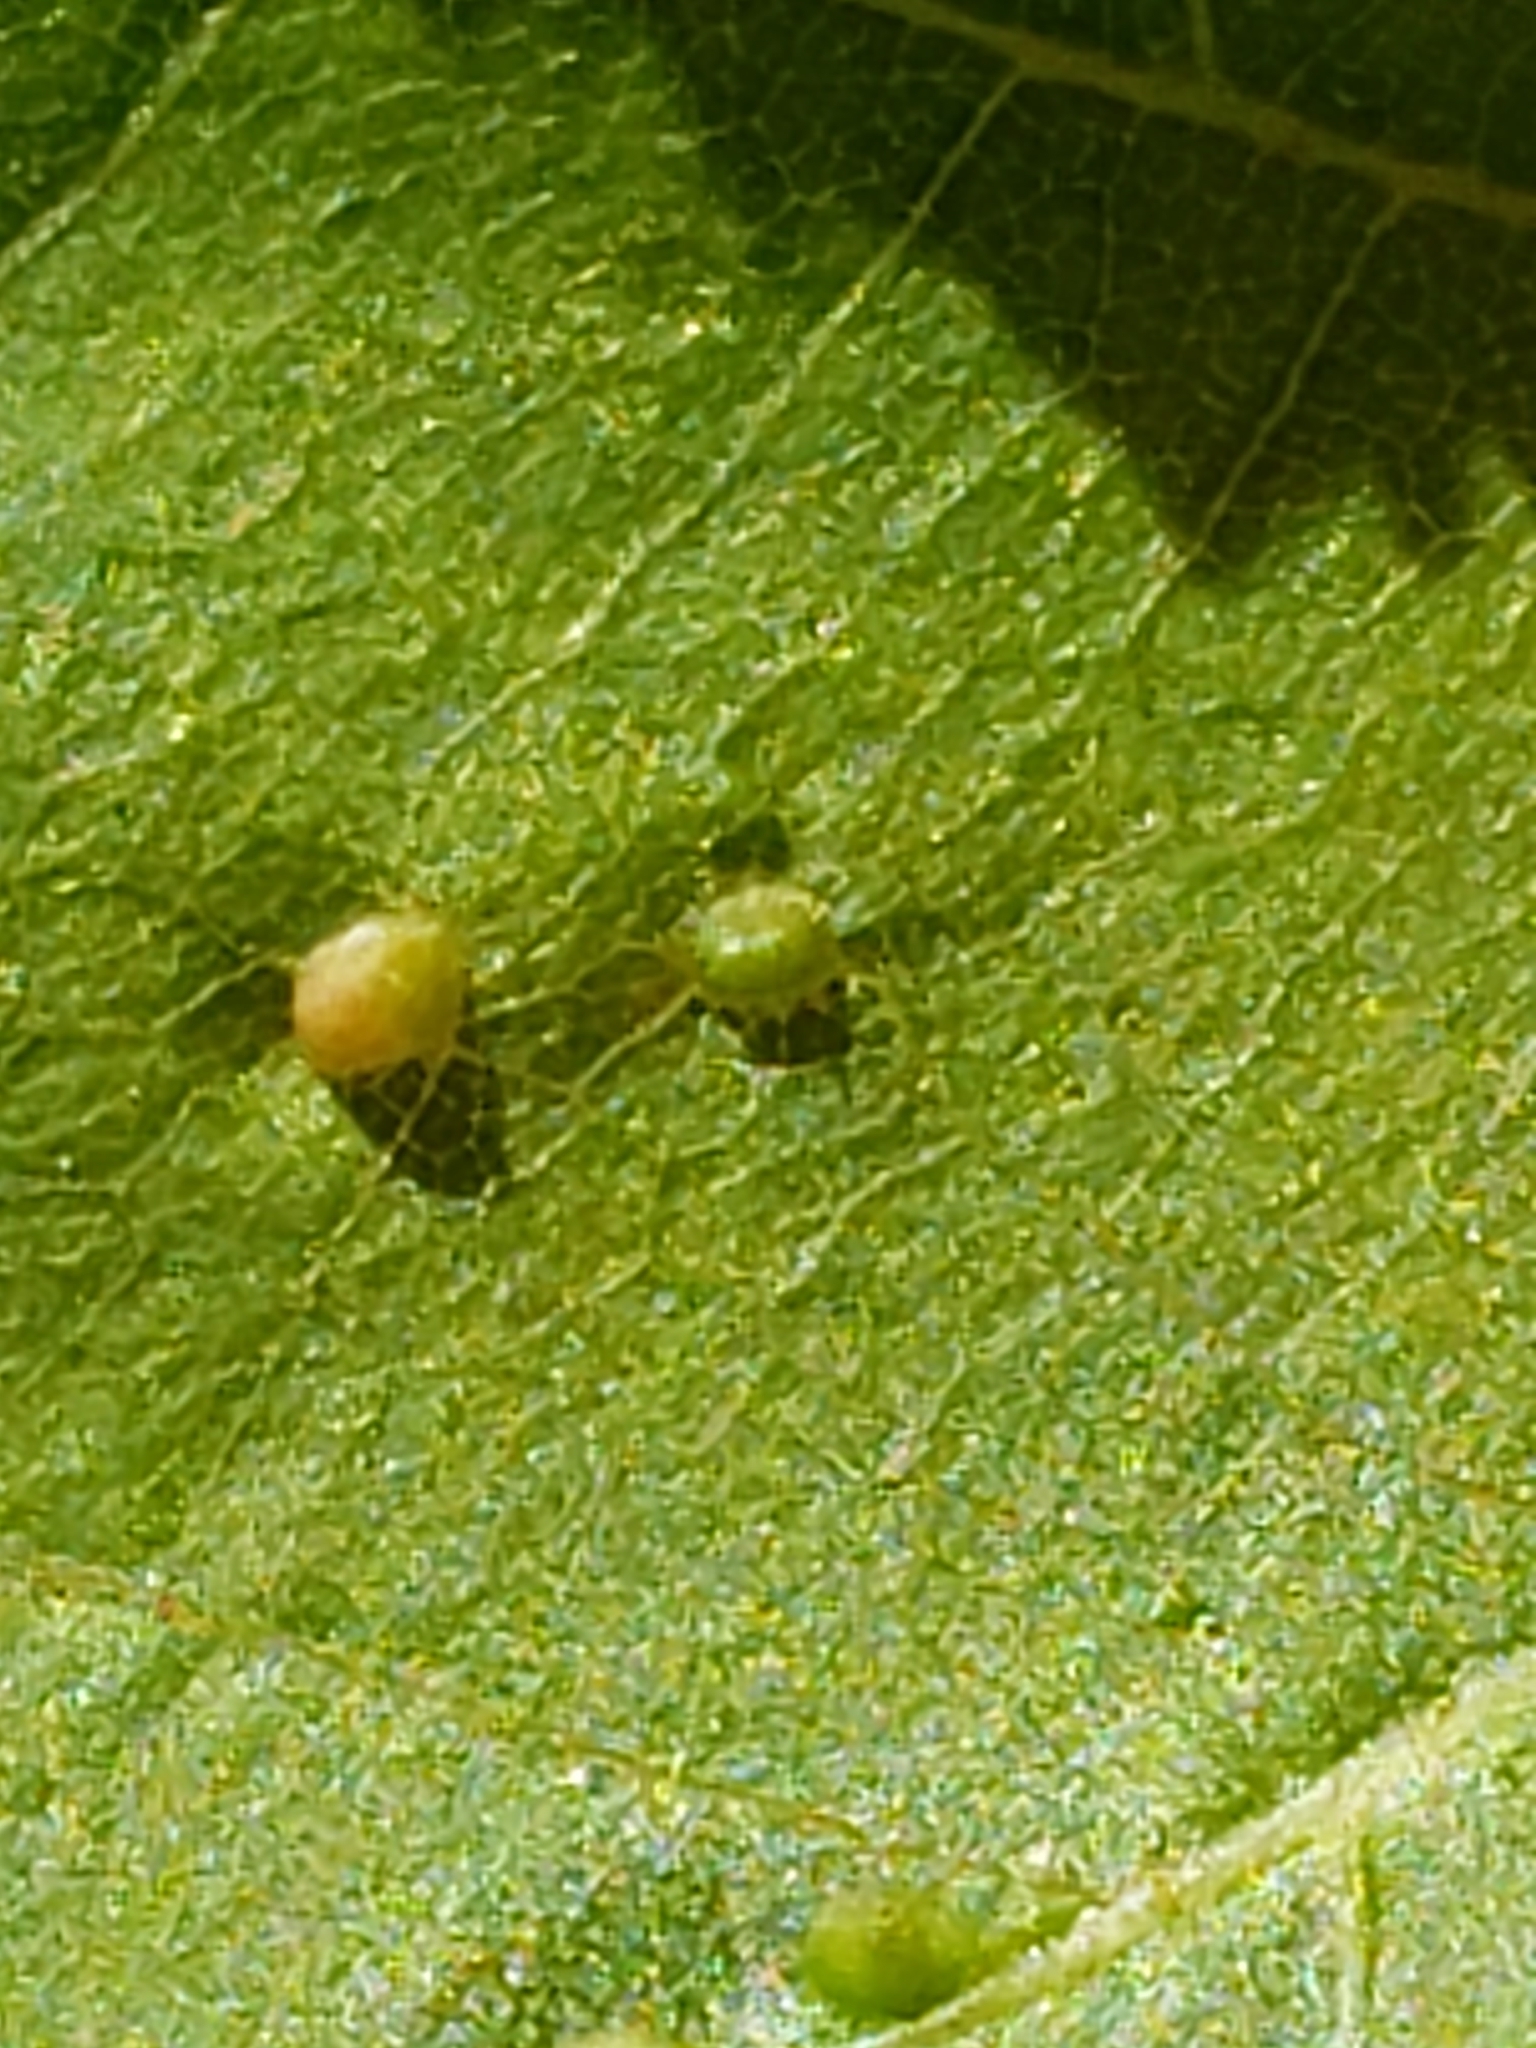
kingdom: Animalia
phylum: Arthropoda
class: Arachnida
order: Trombidiformes
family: Eriophyidae
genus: Vasates
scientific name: Vasates quadripedes
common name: Maple bladder gall mite
